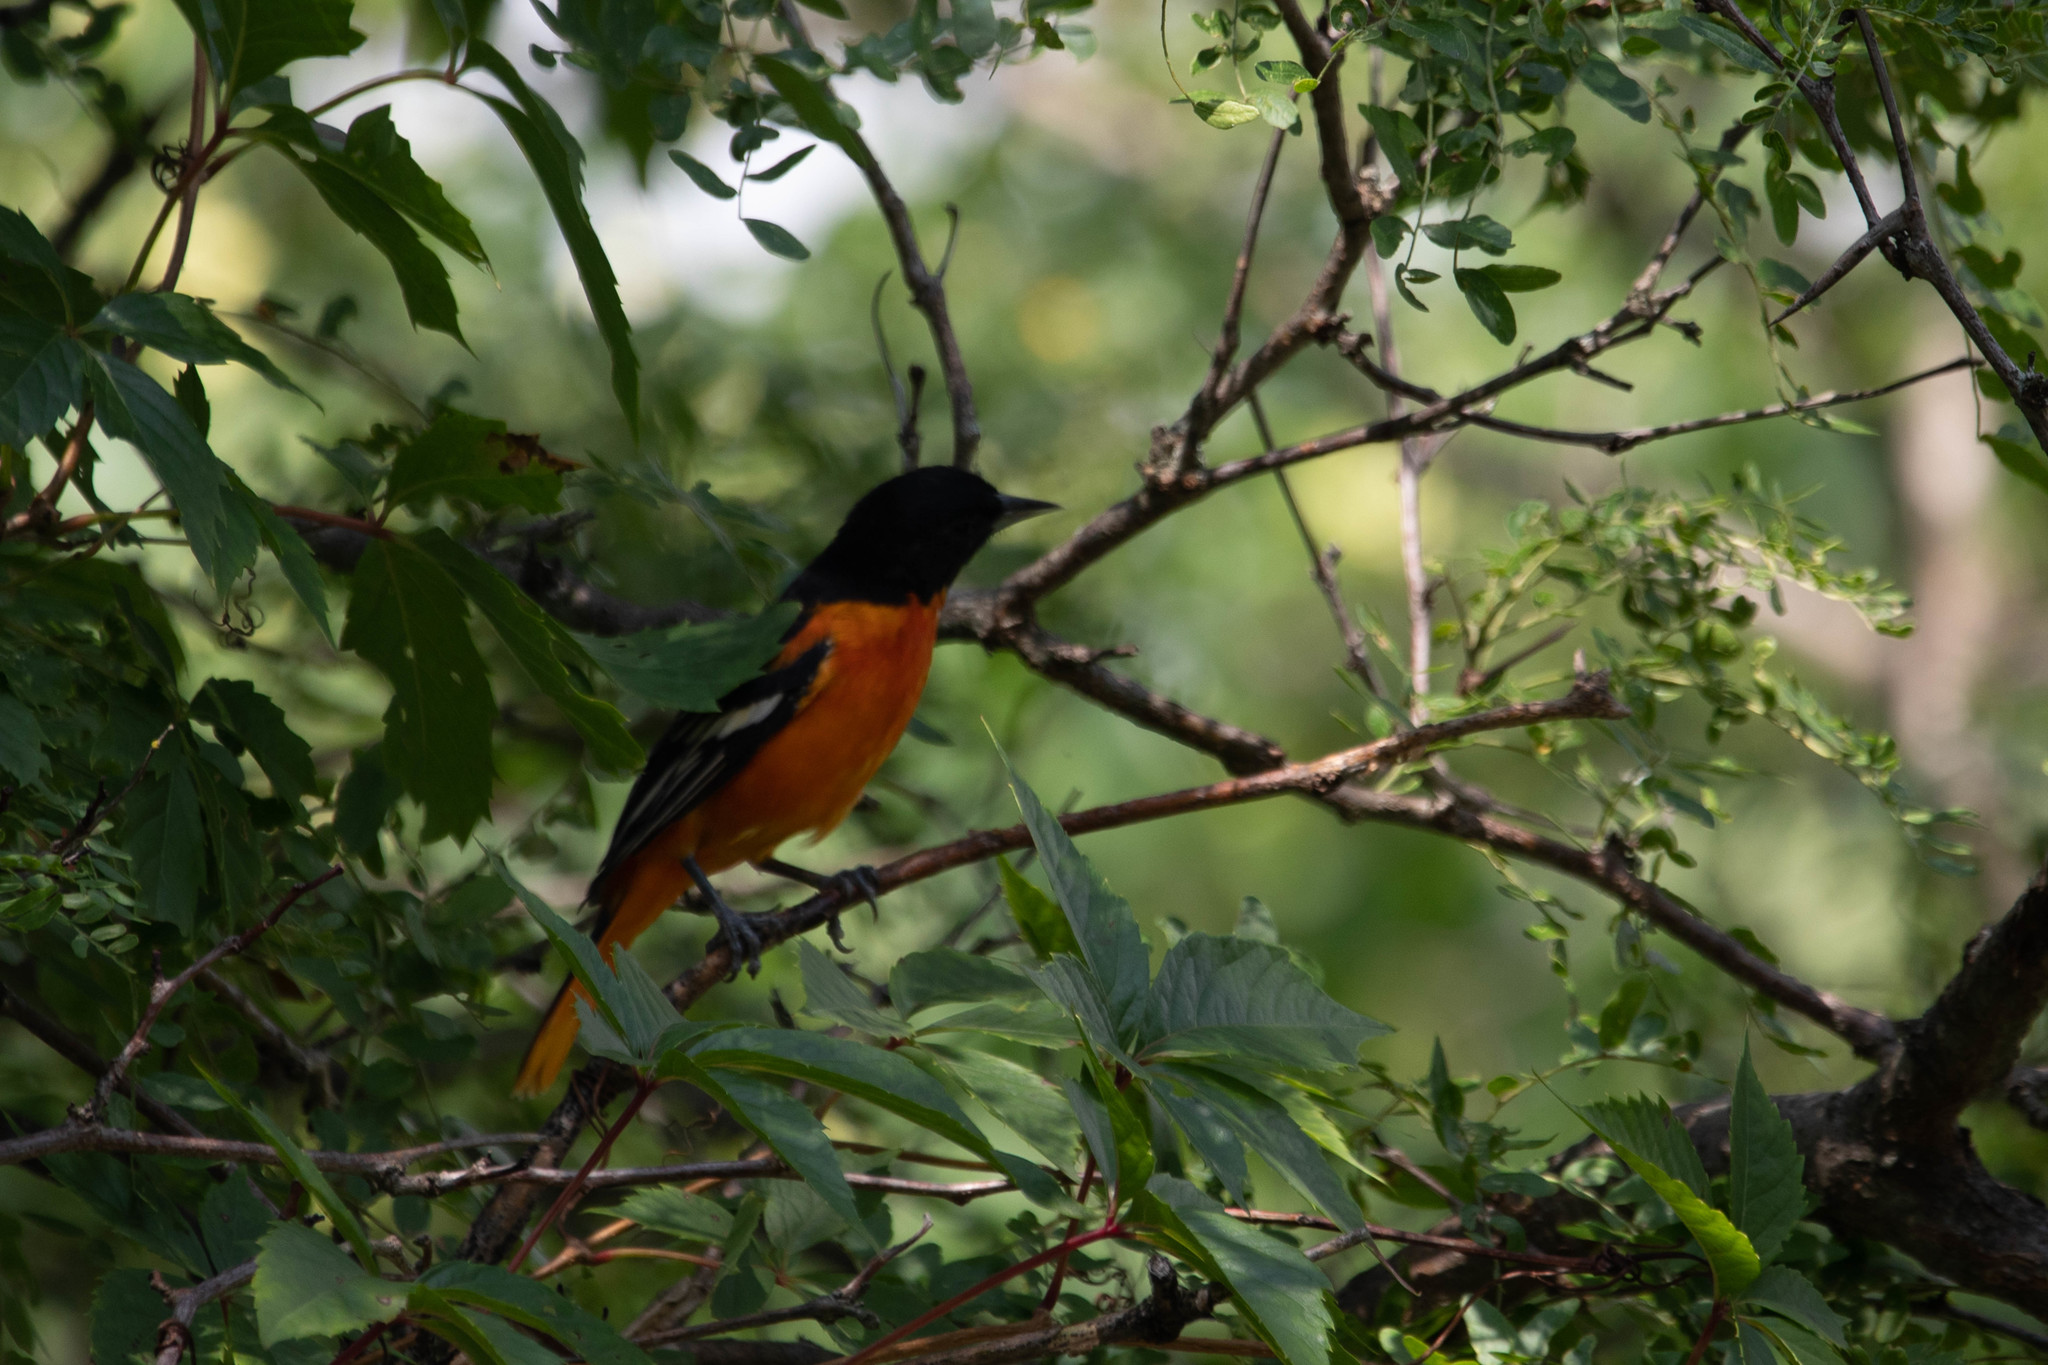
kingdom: Animalia
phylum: Chordata
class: Aves
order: Passeriformes
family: Icteridae
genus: Icterus
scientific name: Icterus galbula
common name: Baltimore oriole
